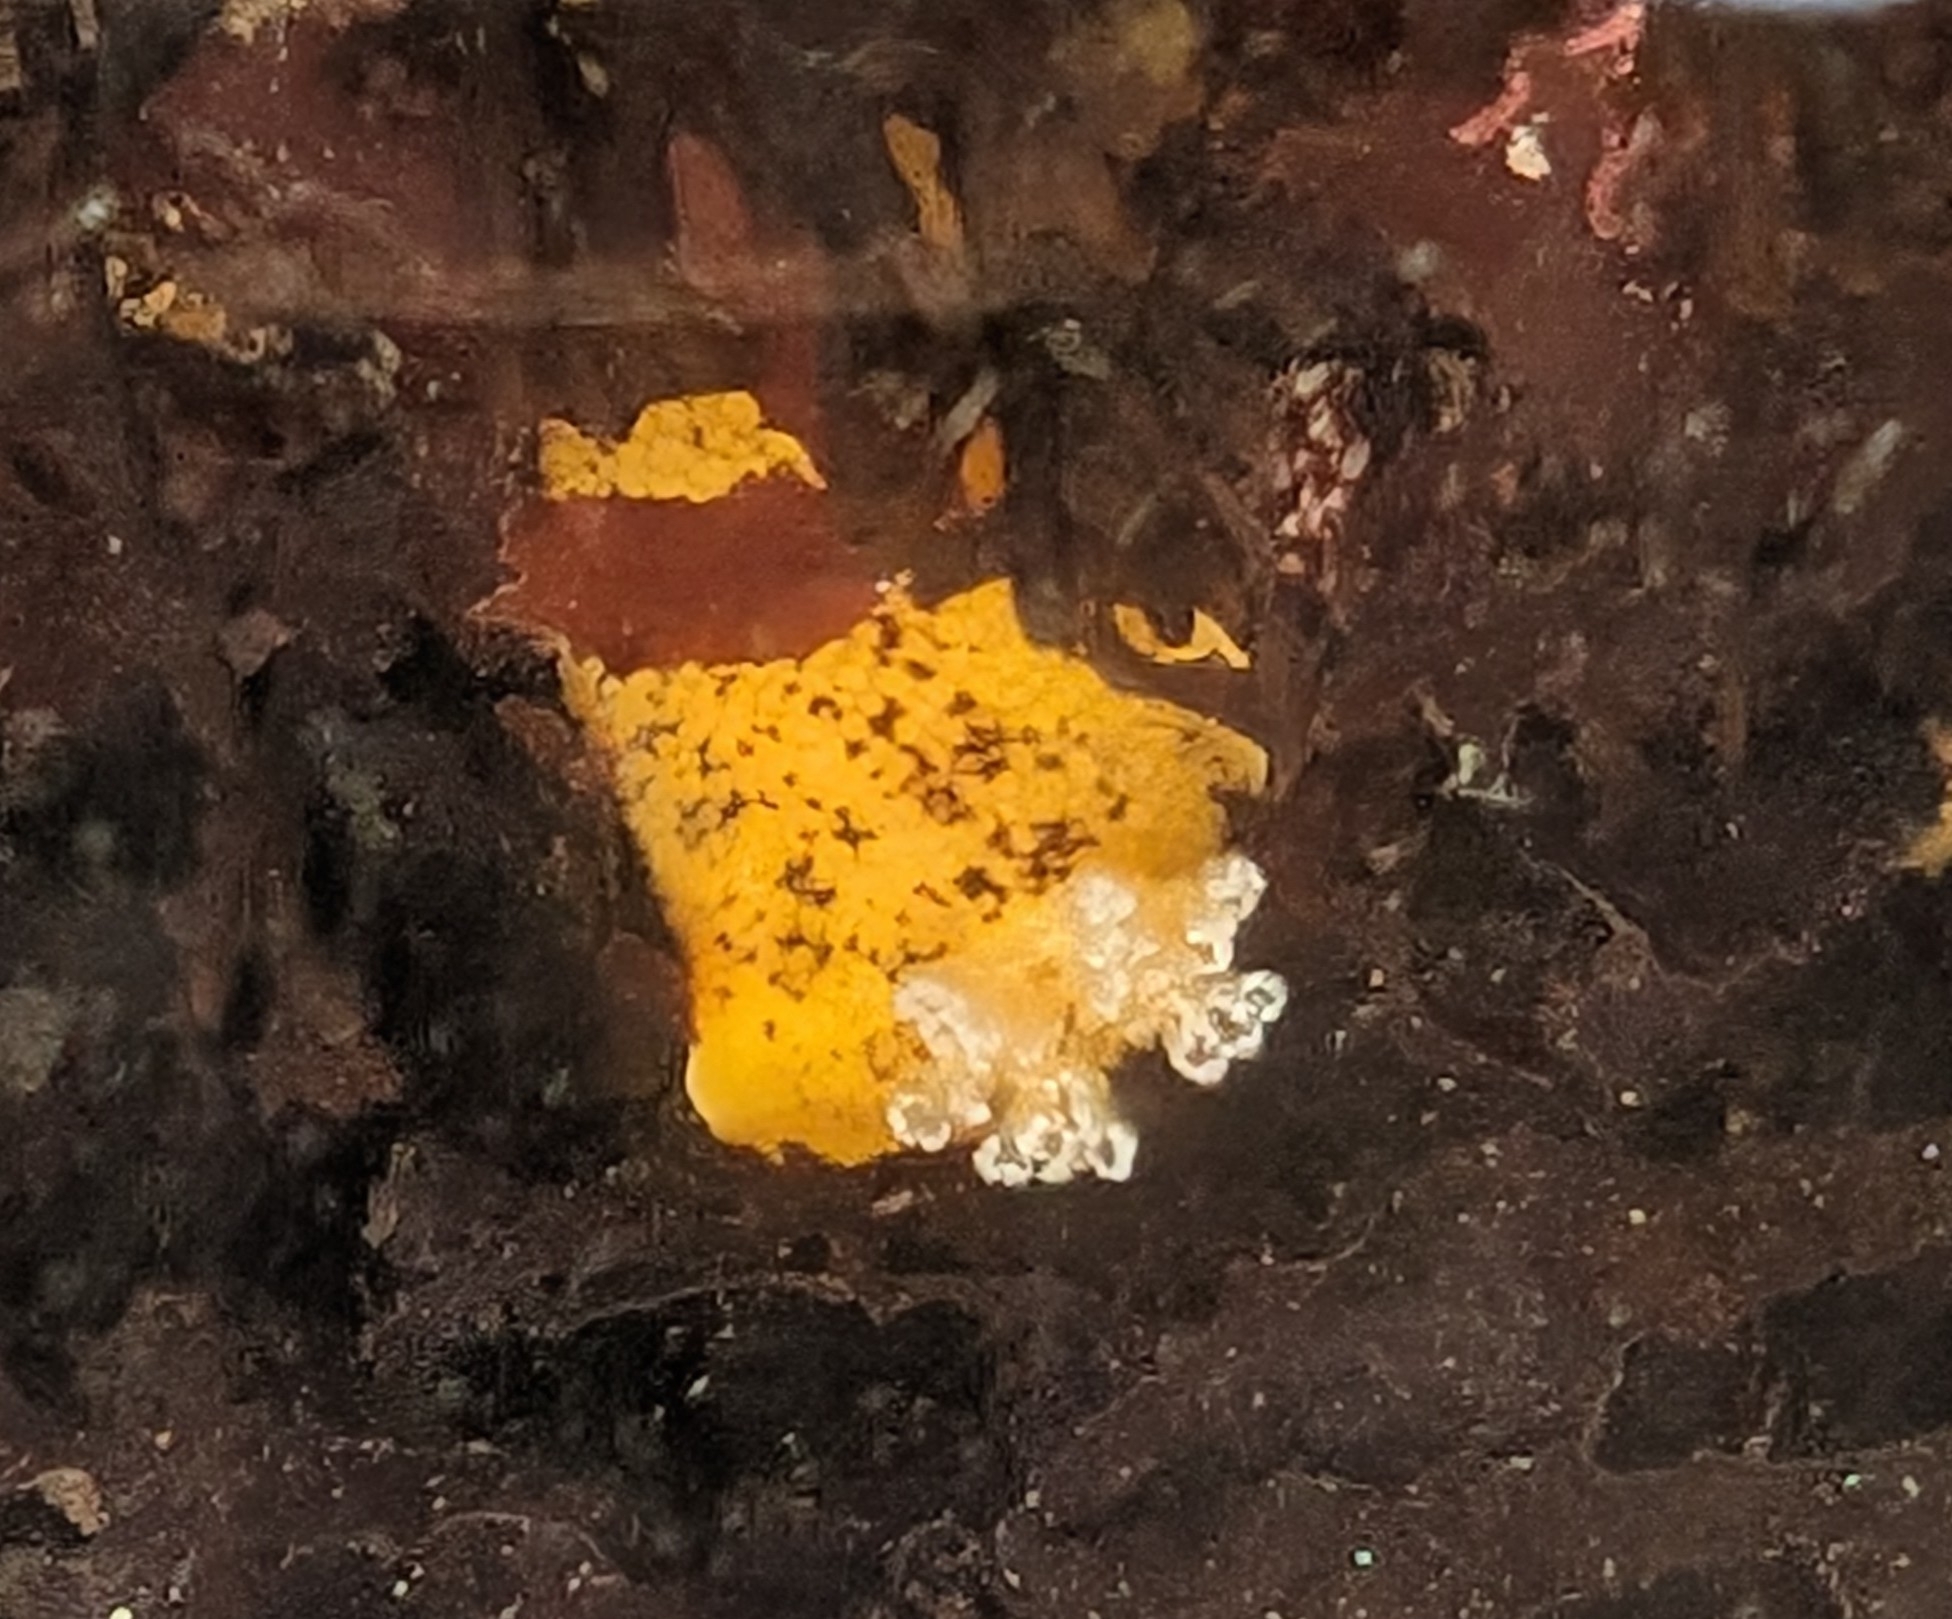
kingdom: Animalia
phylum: Mollusca
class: Gastropoda
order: Nudibranchia
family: Discodorididae
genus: Peltodoris
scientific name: Peltodoris nobilis
